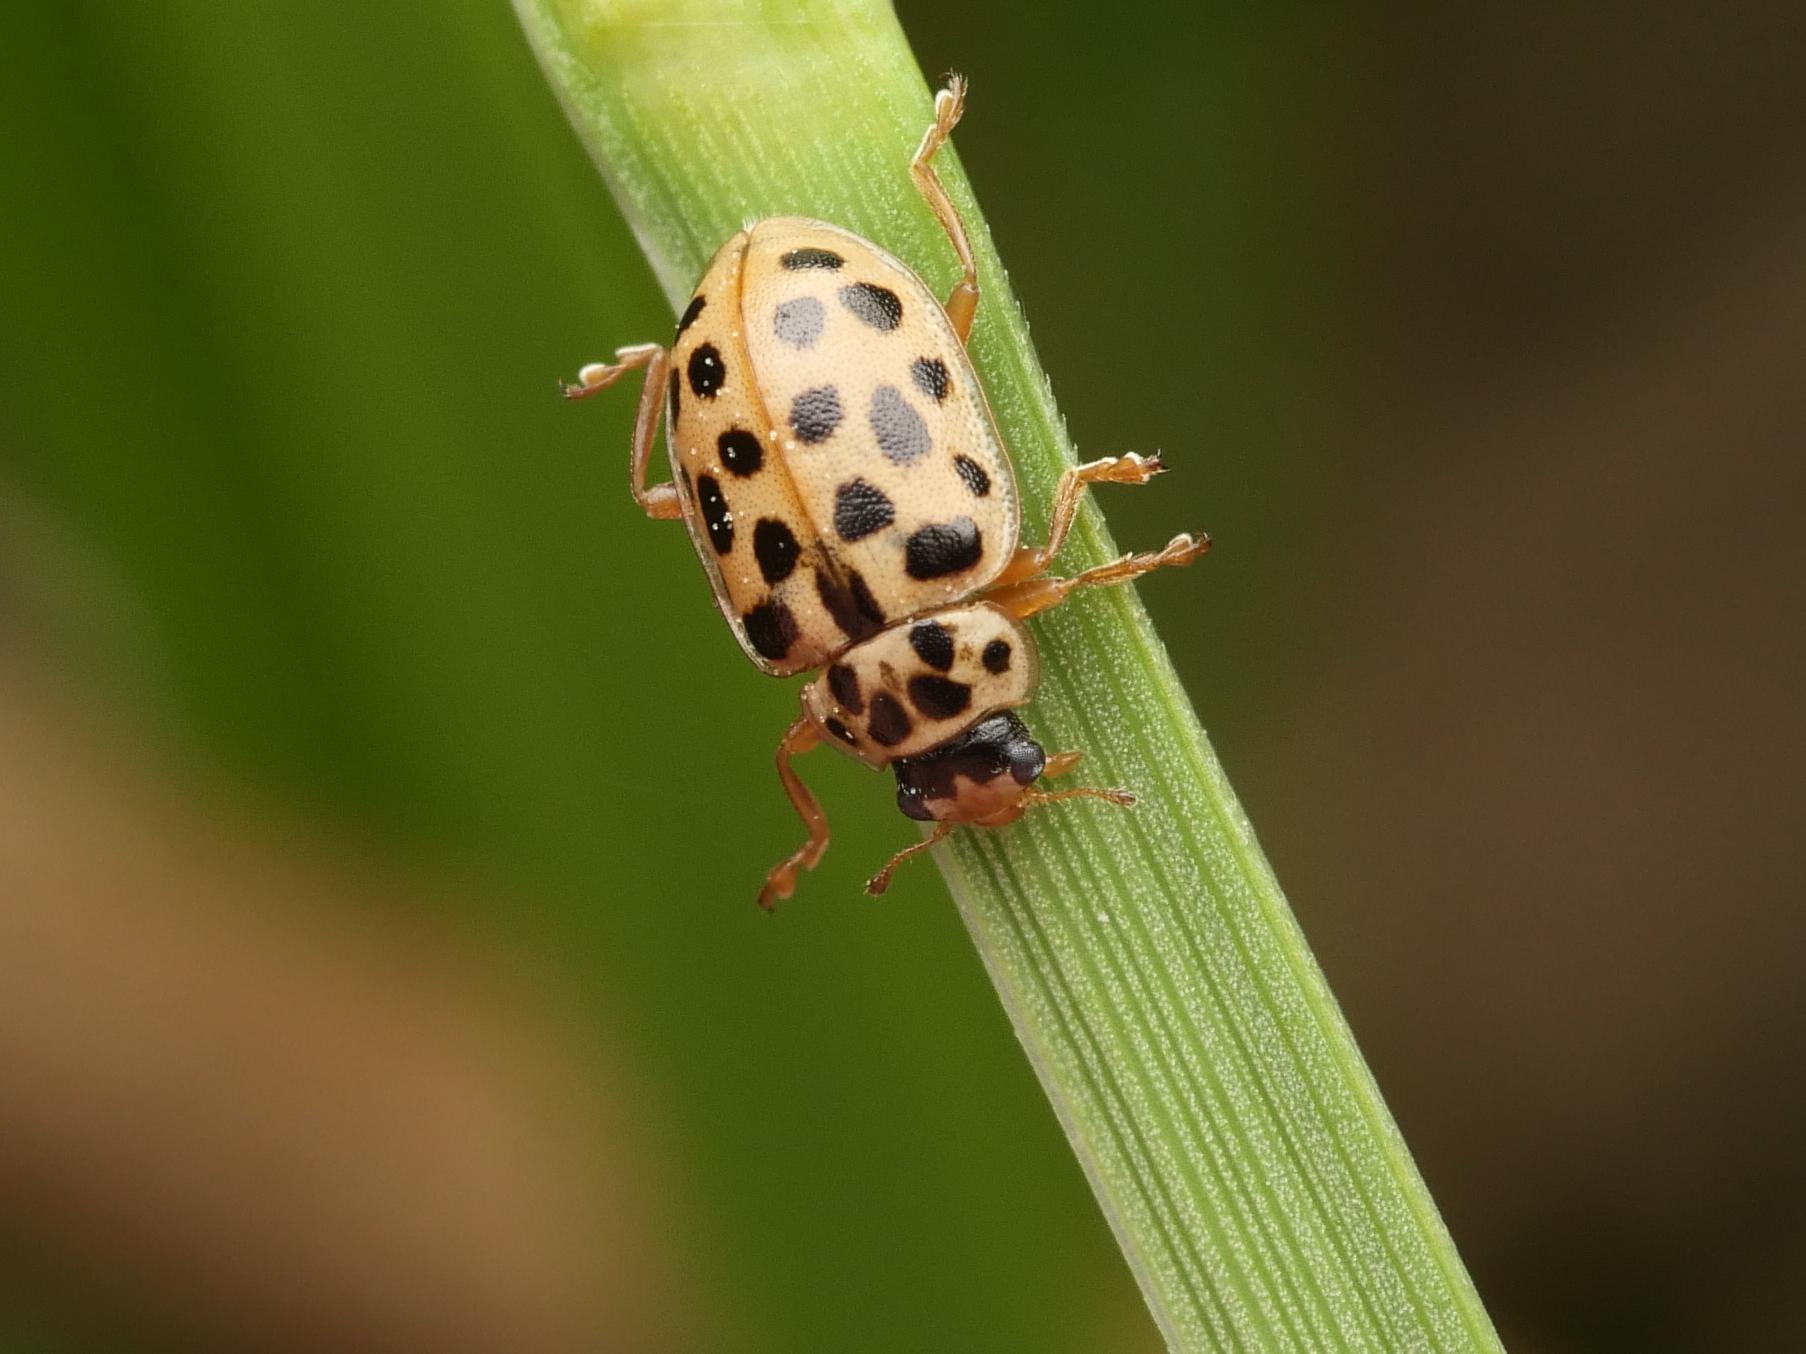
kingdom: Animalia
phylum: Arthropoda
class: Insecta
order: Coleoptera
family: Coccinellidae
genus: Anisosticta
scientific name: Anisosticta novemdecimpunctata
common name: Water ladybird
